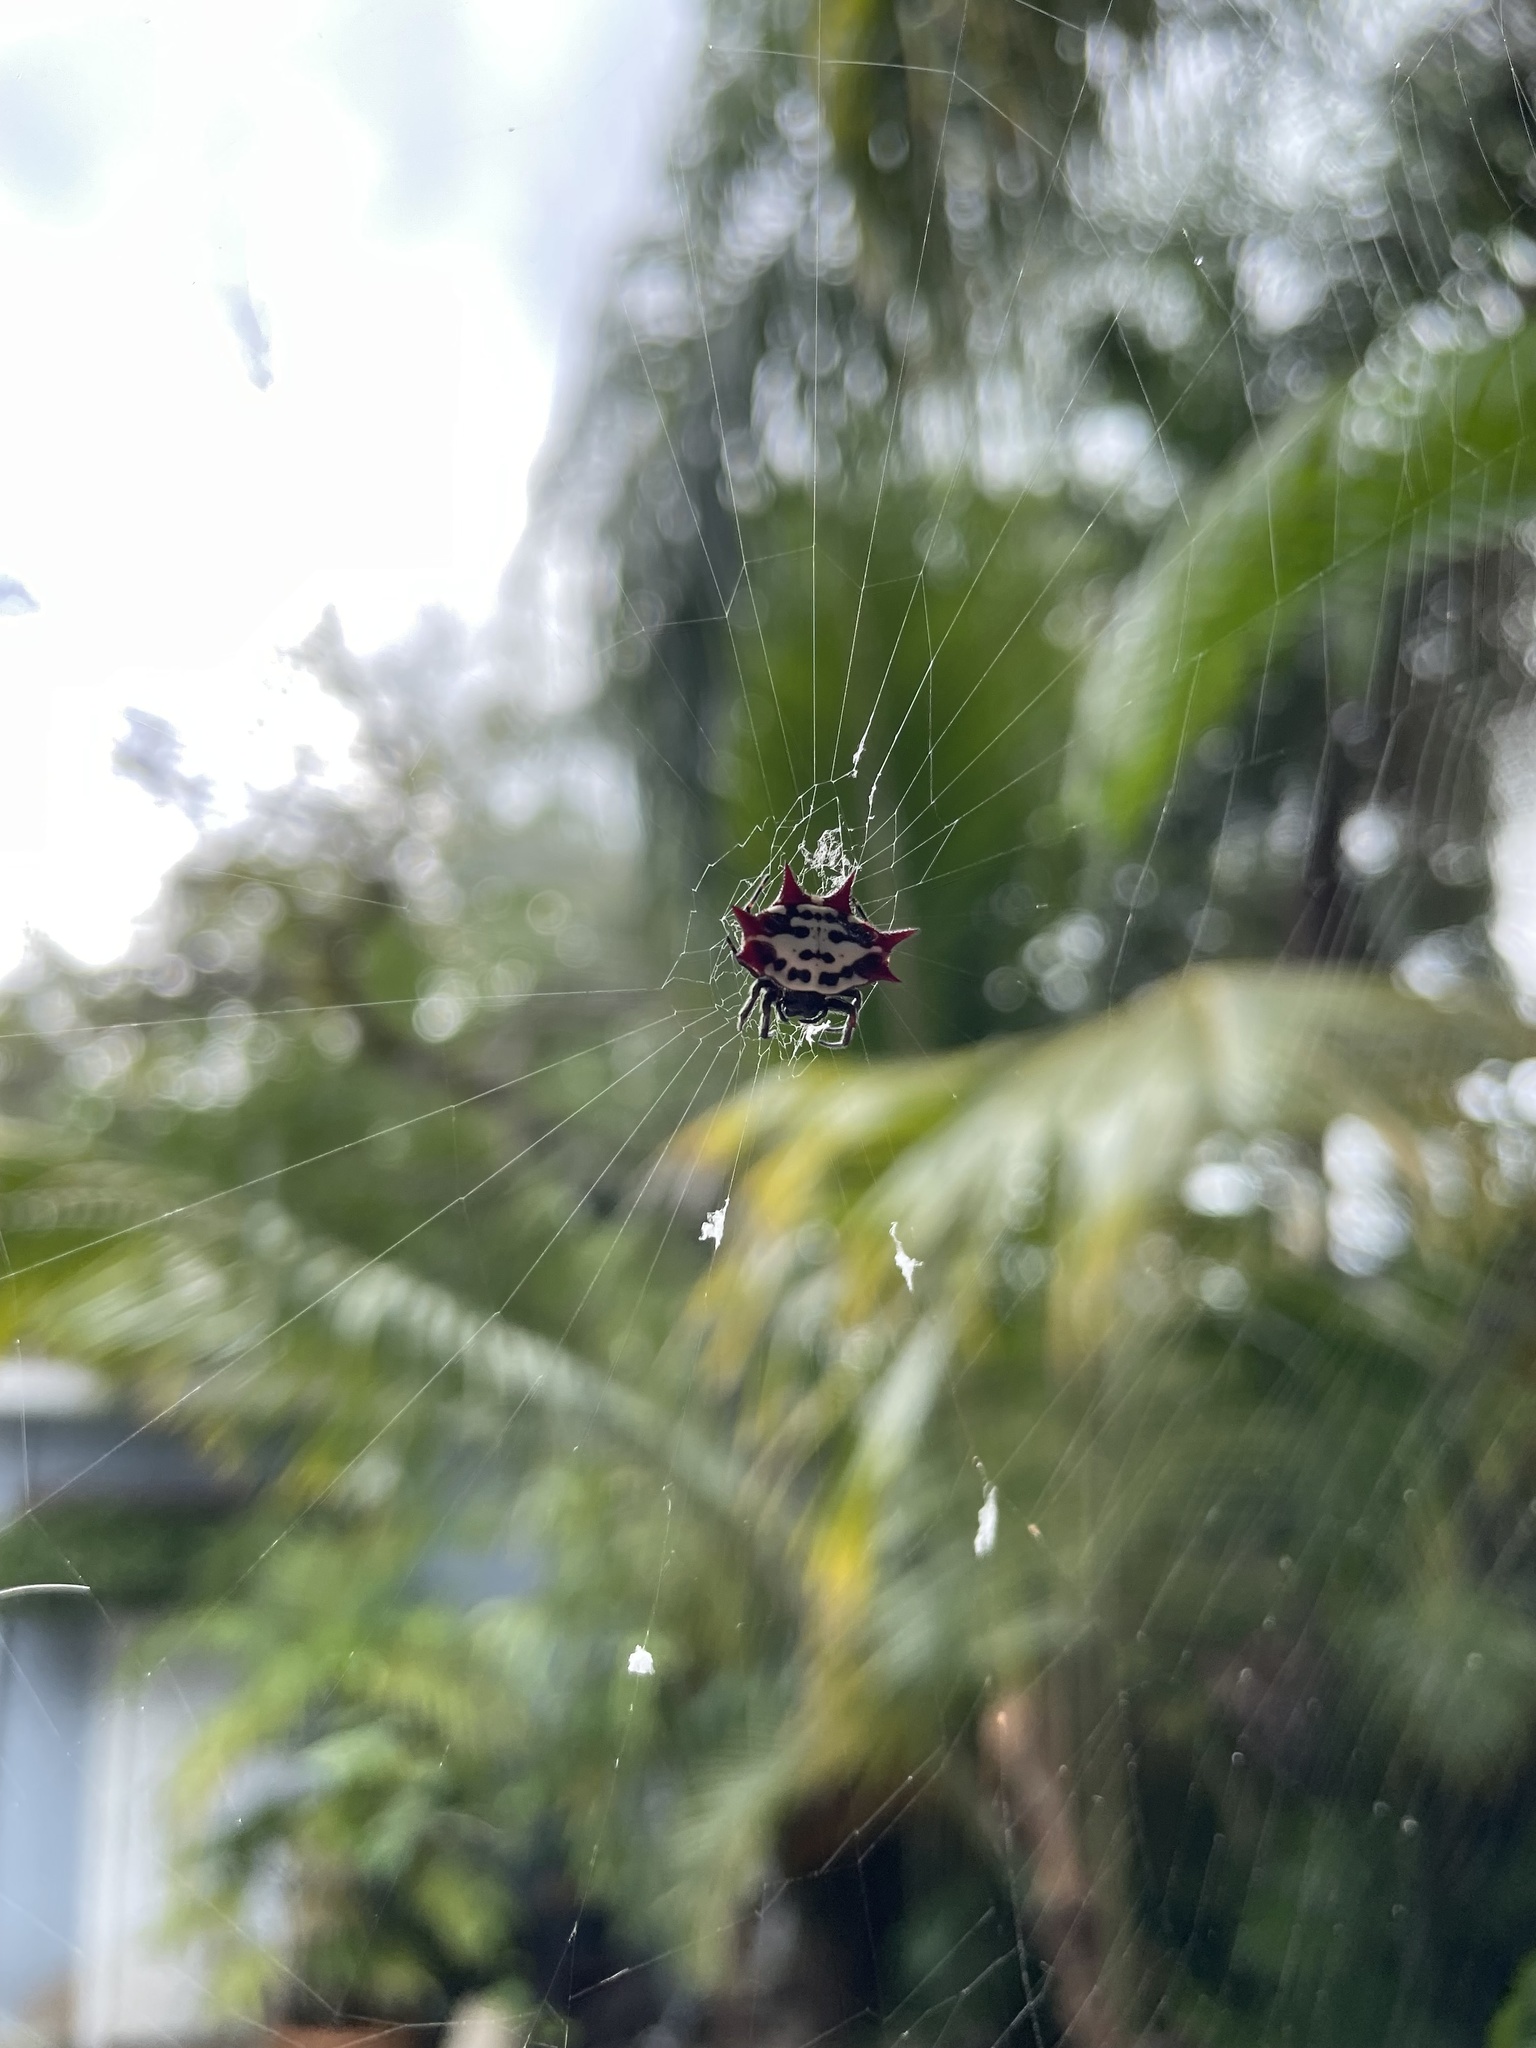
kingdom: Animalia
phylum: Arthropoda
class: Arachnida
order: Araneae
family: Araneidae
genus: Gasteracantha
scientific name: Gasteracantha cancriformis
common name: Orb weavers
